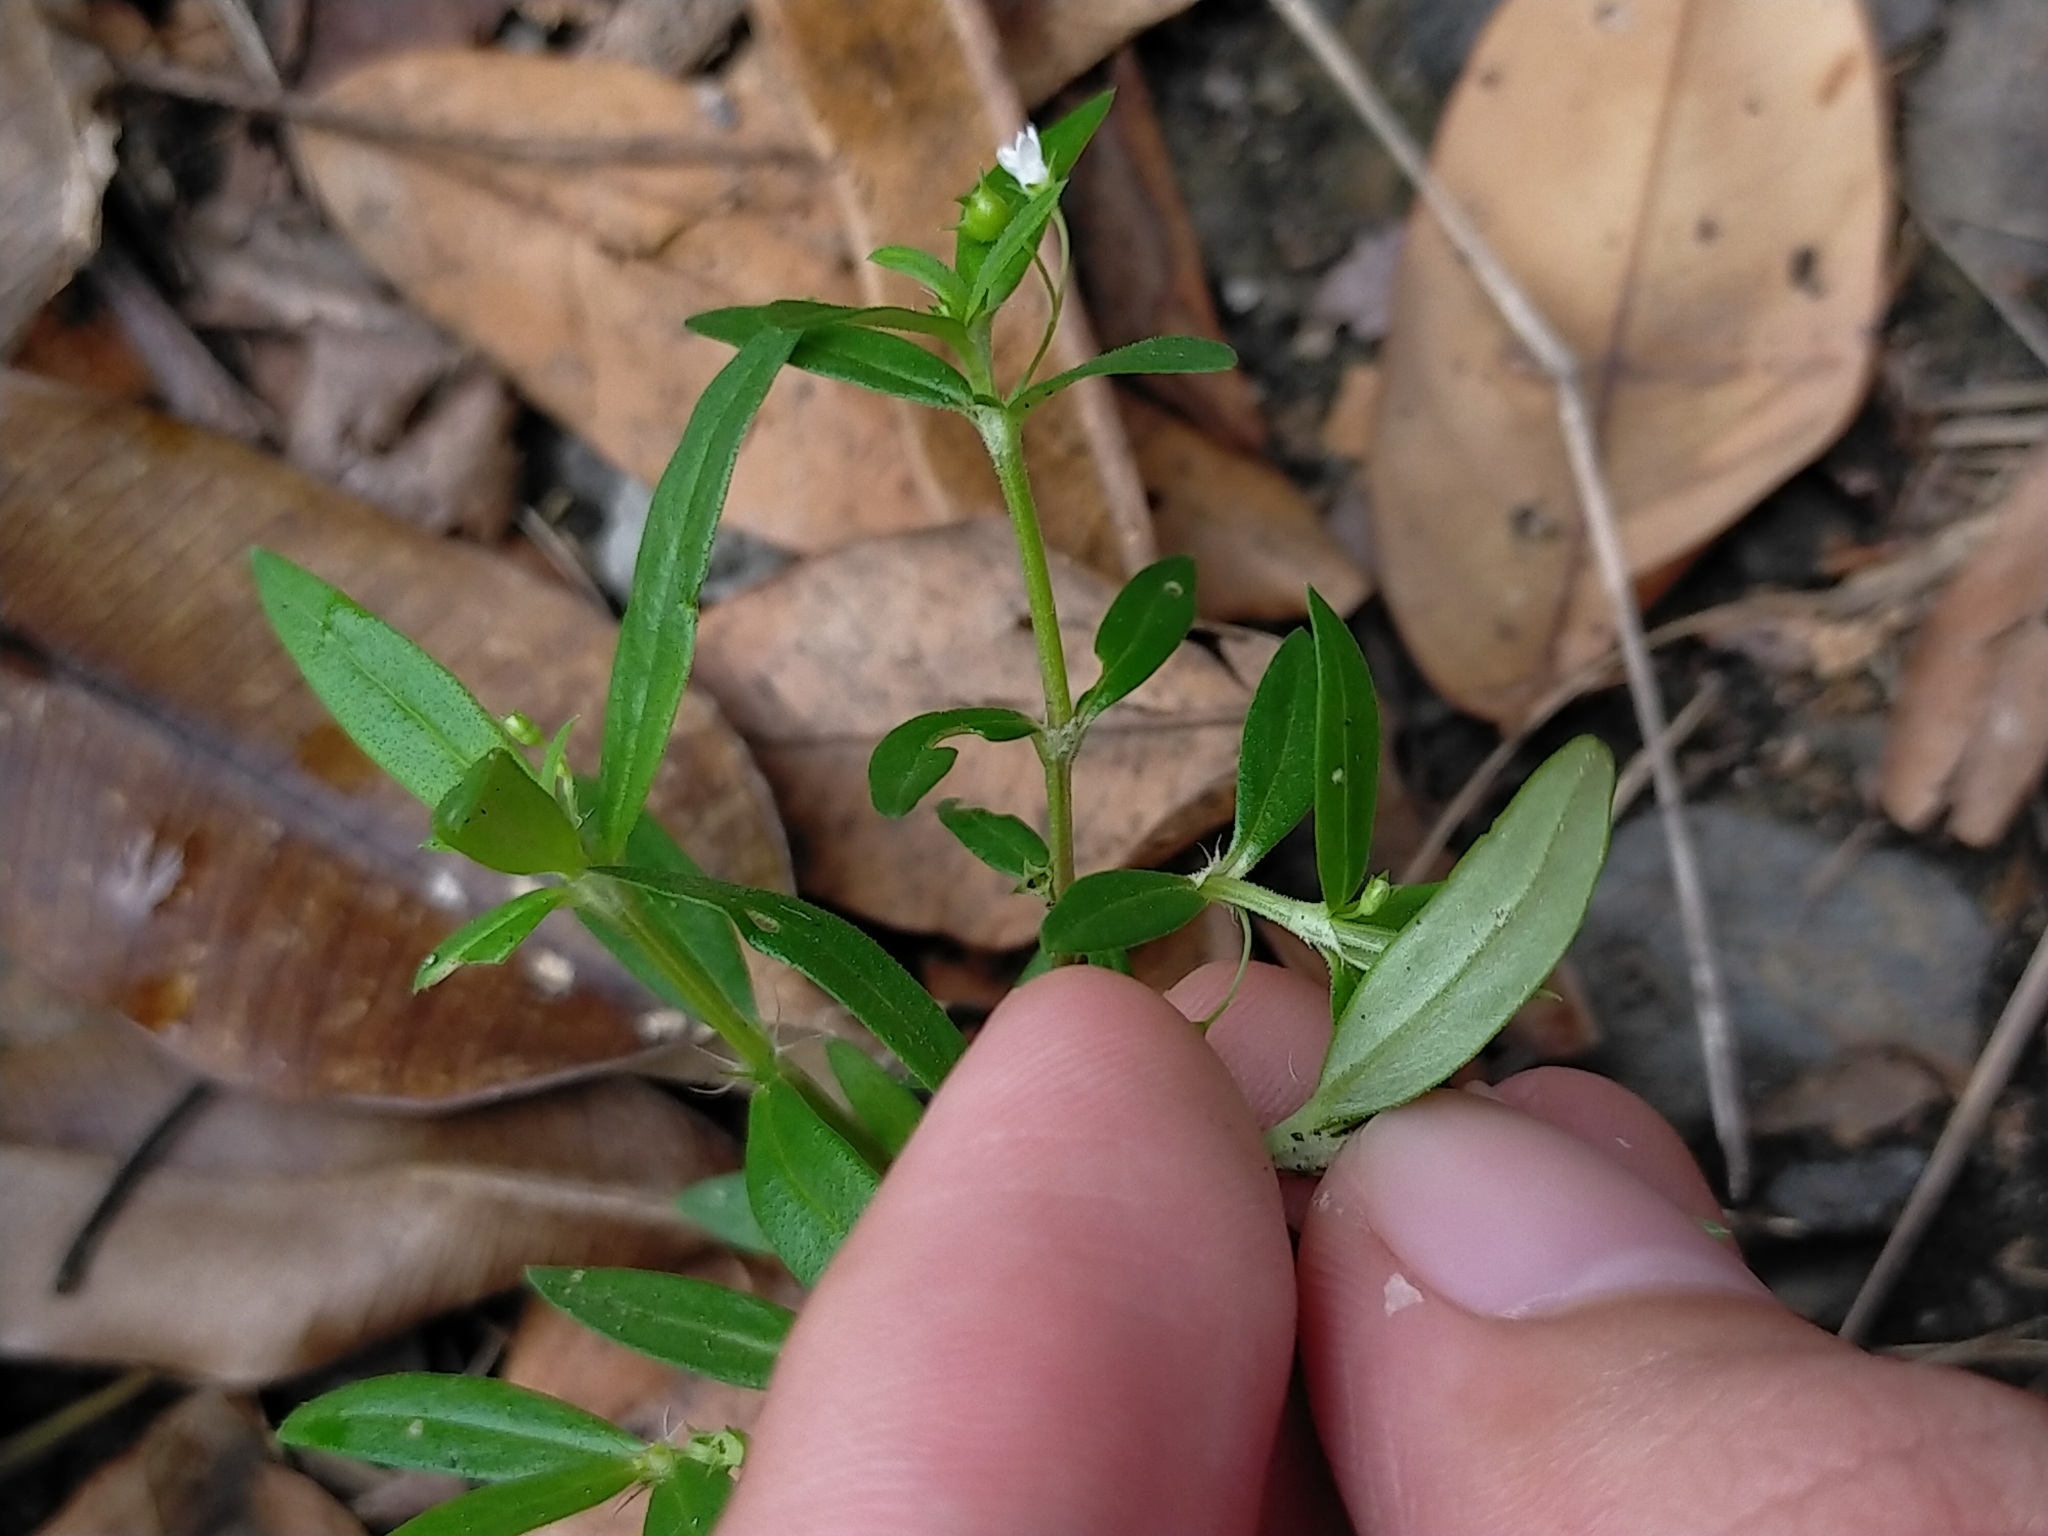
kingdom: Plantae
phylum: Tracheophyta
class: Magnoliopsida
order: Gentianales
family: Rubiaceae
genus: Oldenlandia
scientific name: Oldenlandia corymbosa
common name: Flat-top mille graines
